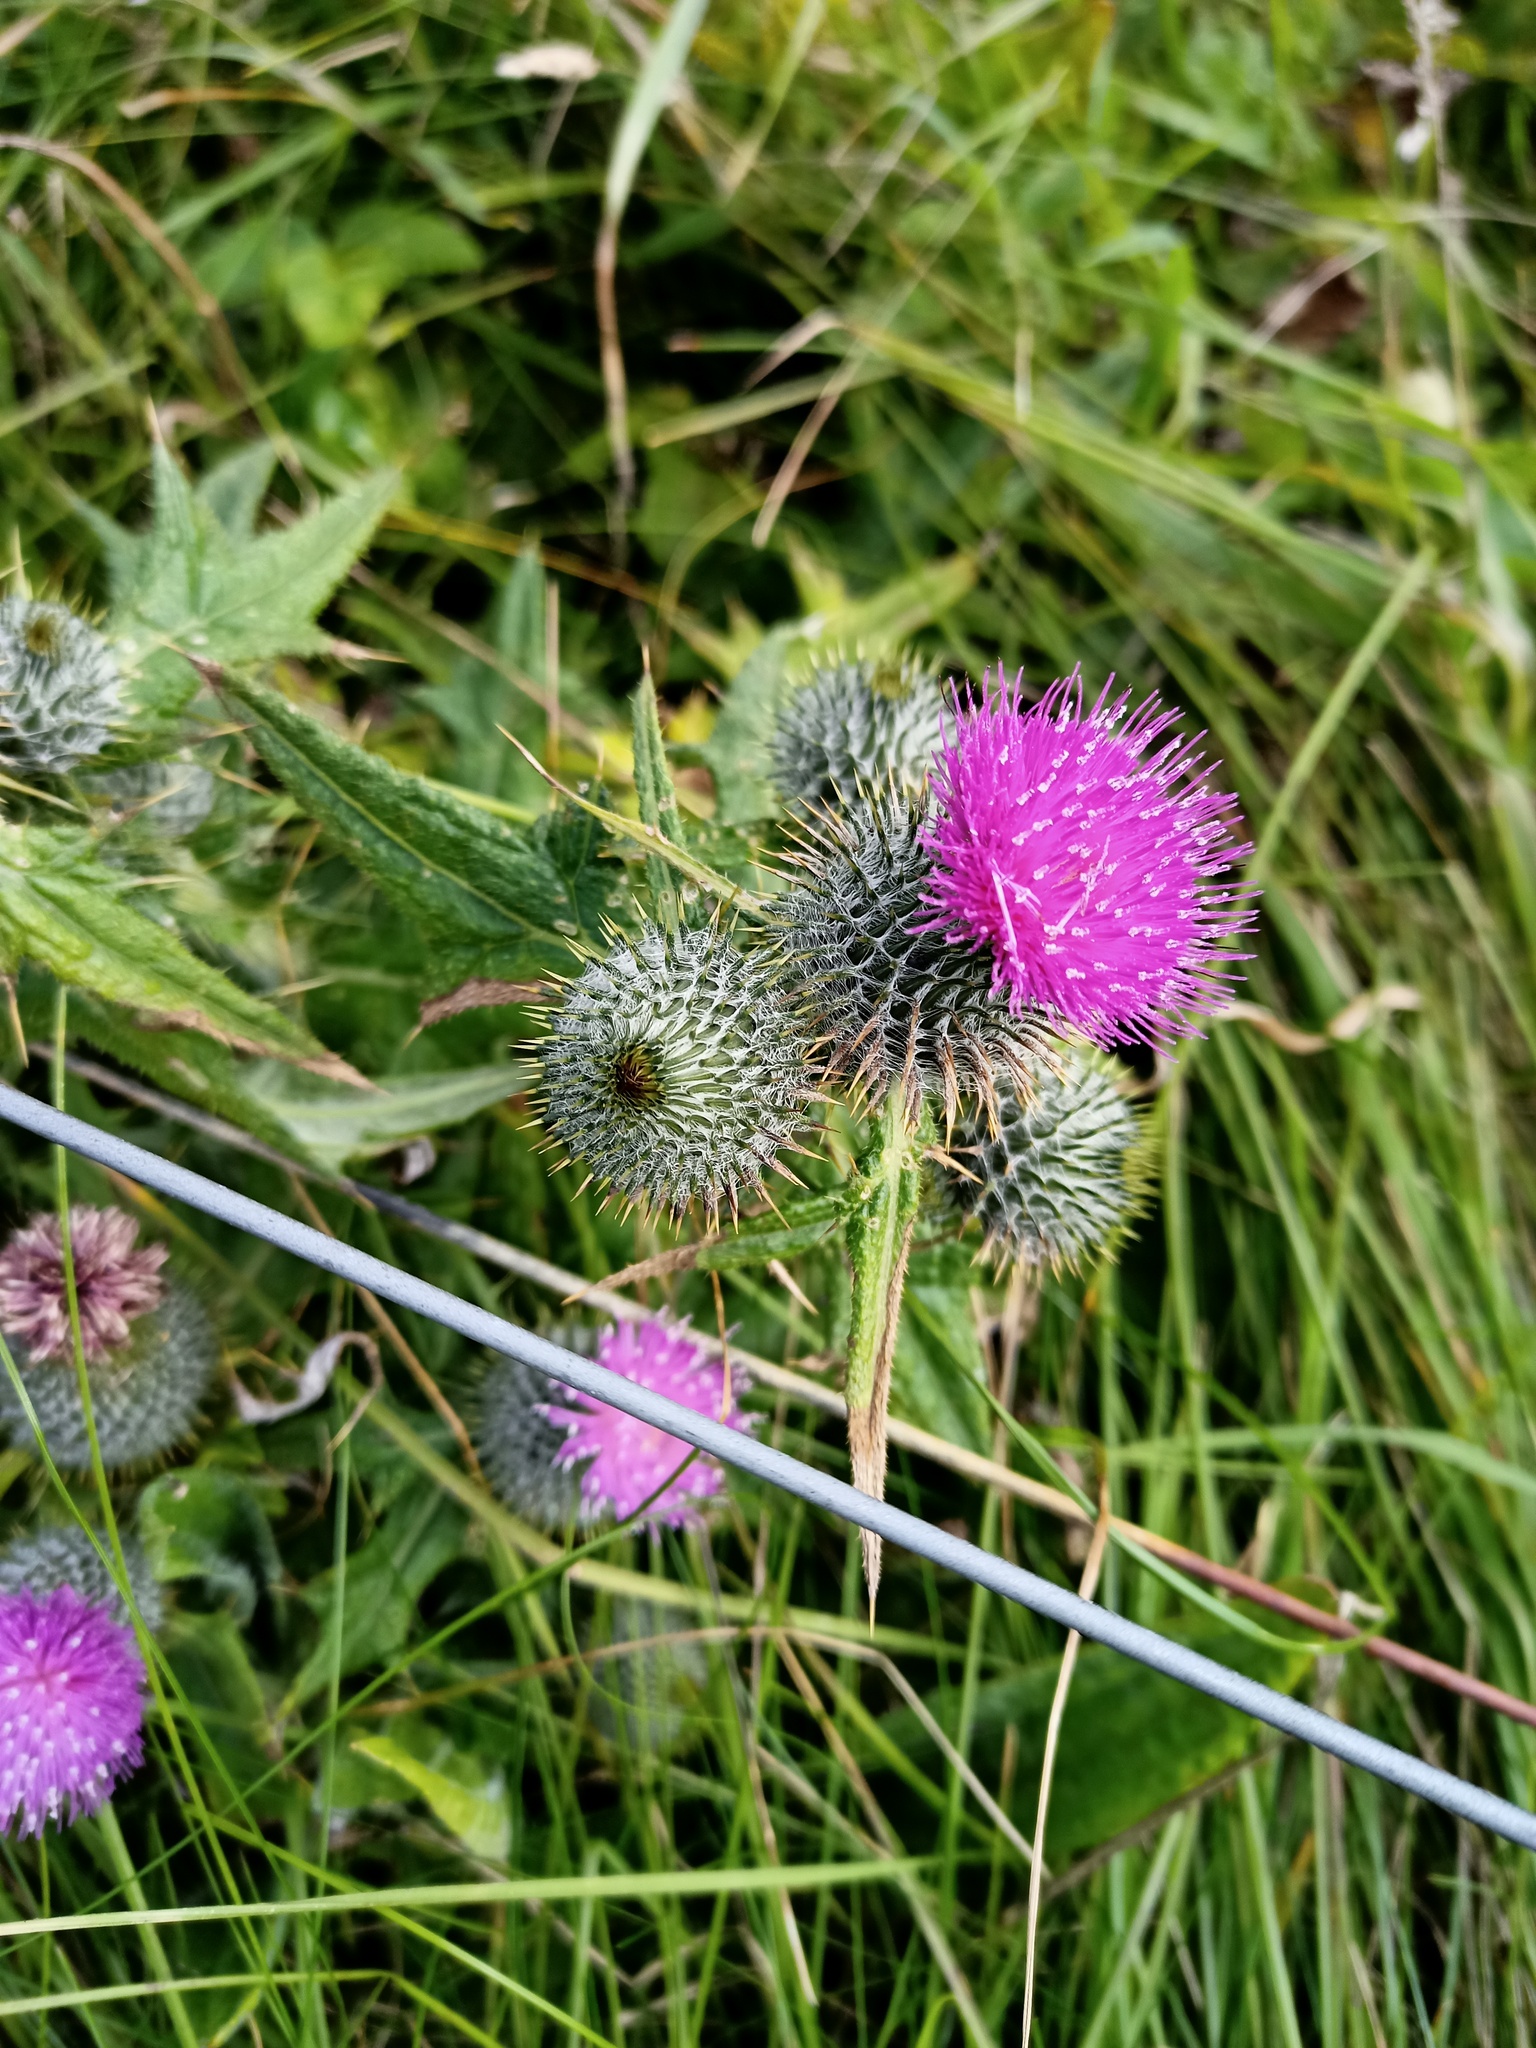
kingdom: Plantae
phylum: Tracheophyta
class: Magnoliopsida
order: Asterales
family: Asteraceae
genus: Cirsium
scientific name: Cirsium vulgare
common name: Bull thistle
